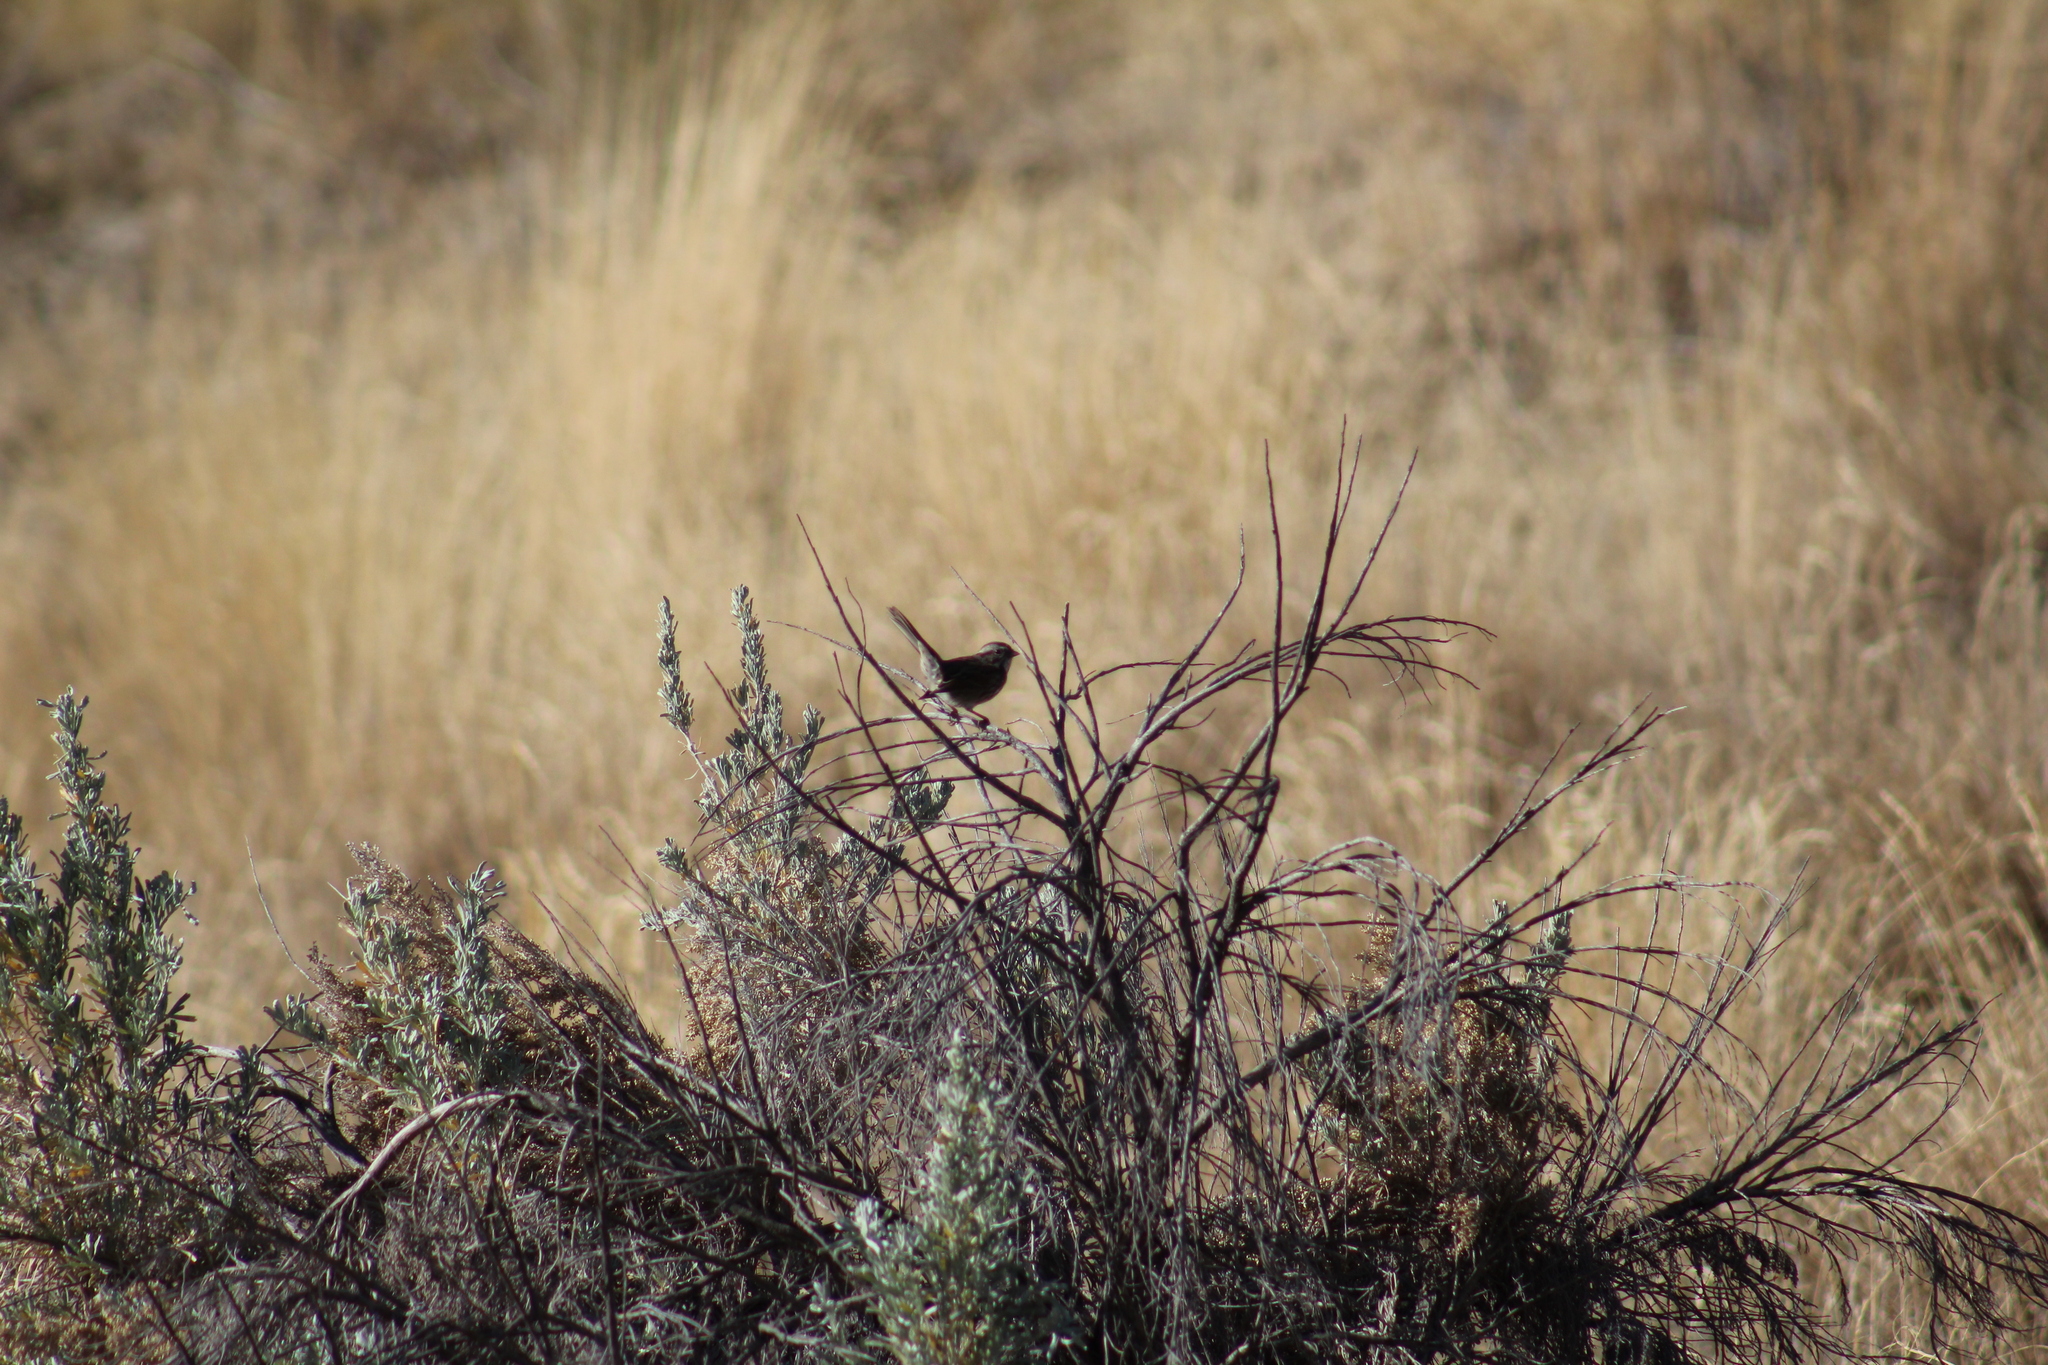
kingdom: Animalia
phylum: Chordata
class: Aves
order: Passeriformes
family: Passerellidae
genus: Melospiza
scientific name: Melospiza melodia
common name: Song sparrow
